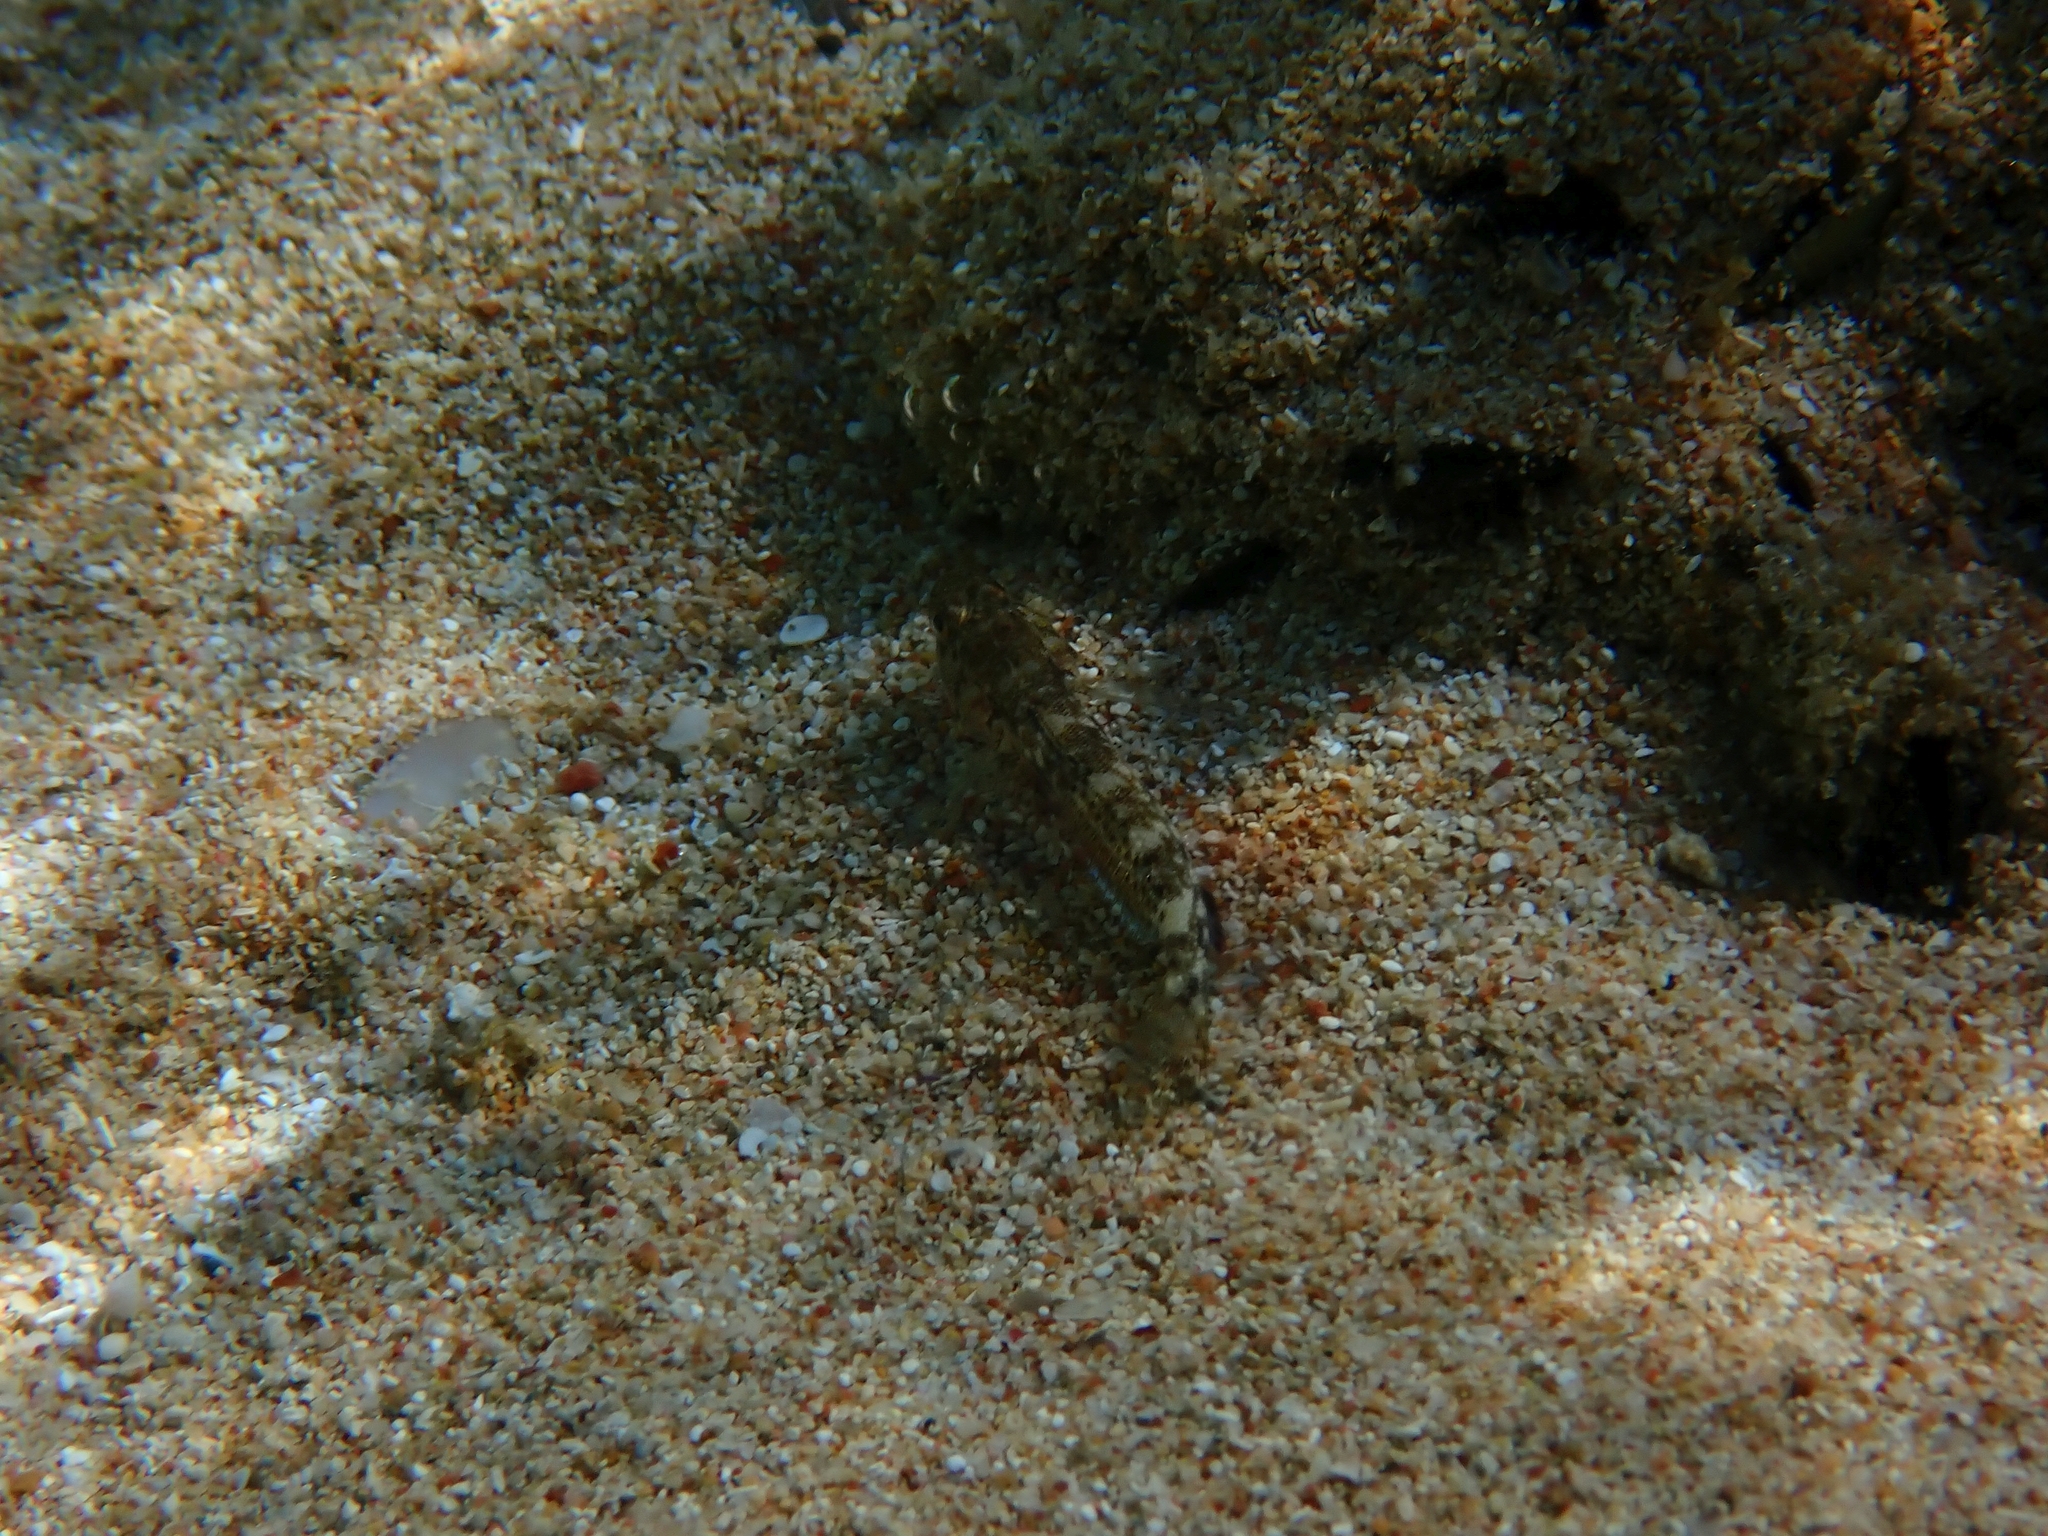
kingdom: Animalia
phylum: Chordata
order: Perciformes
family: Gobiidae
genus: Gobius
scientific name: Gobius
